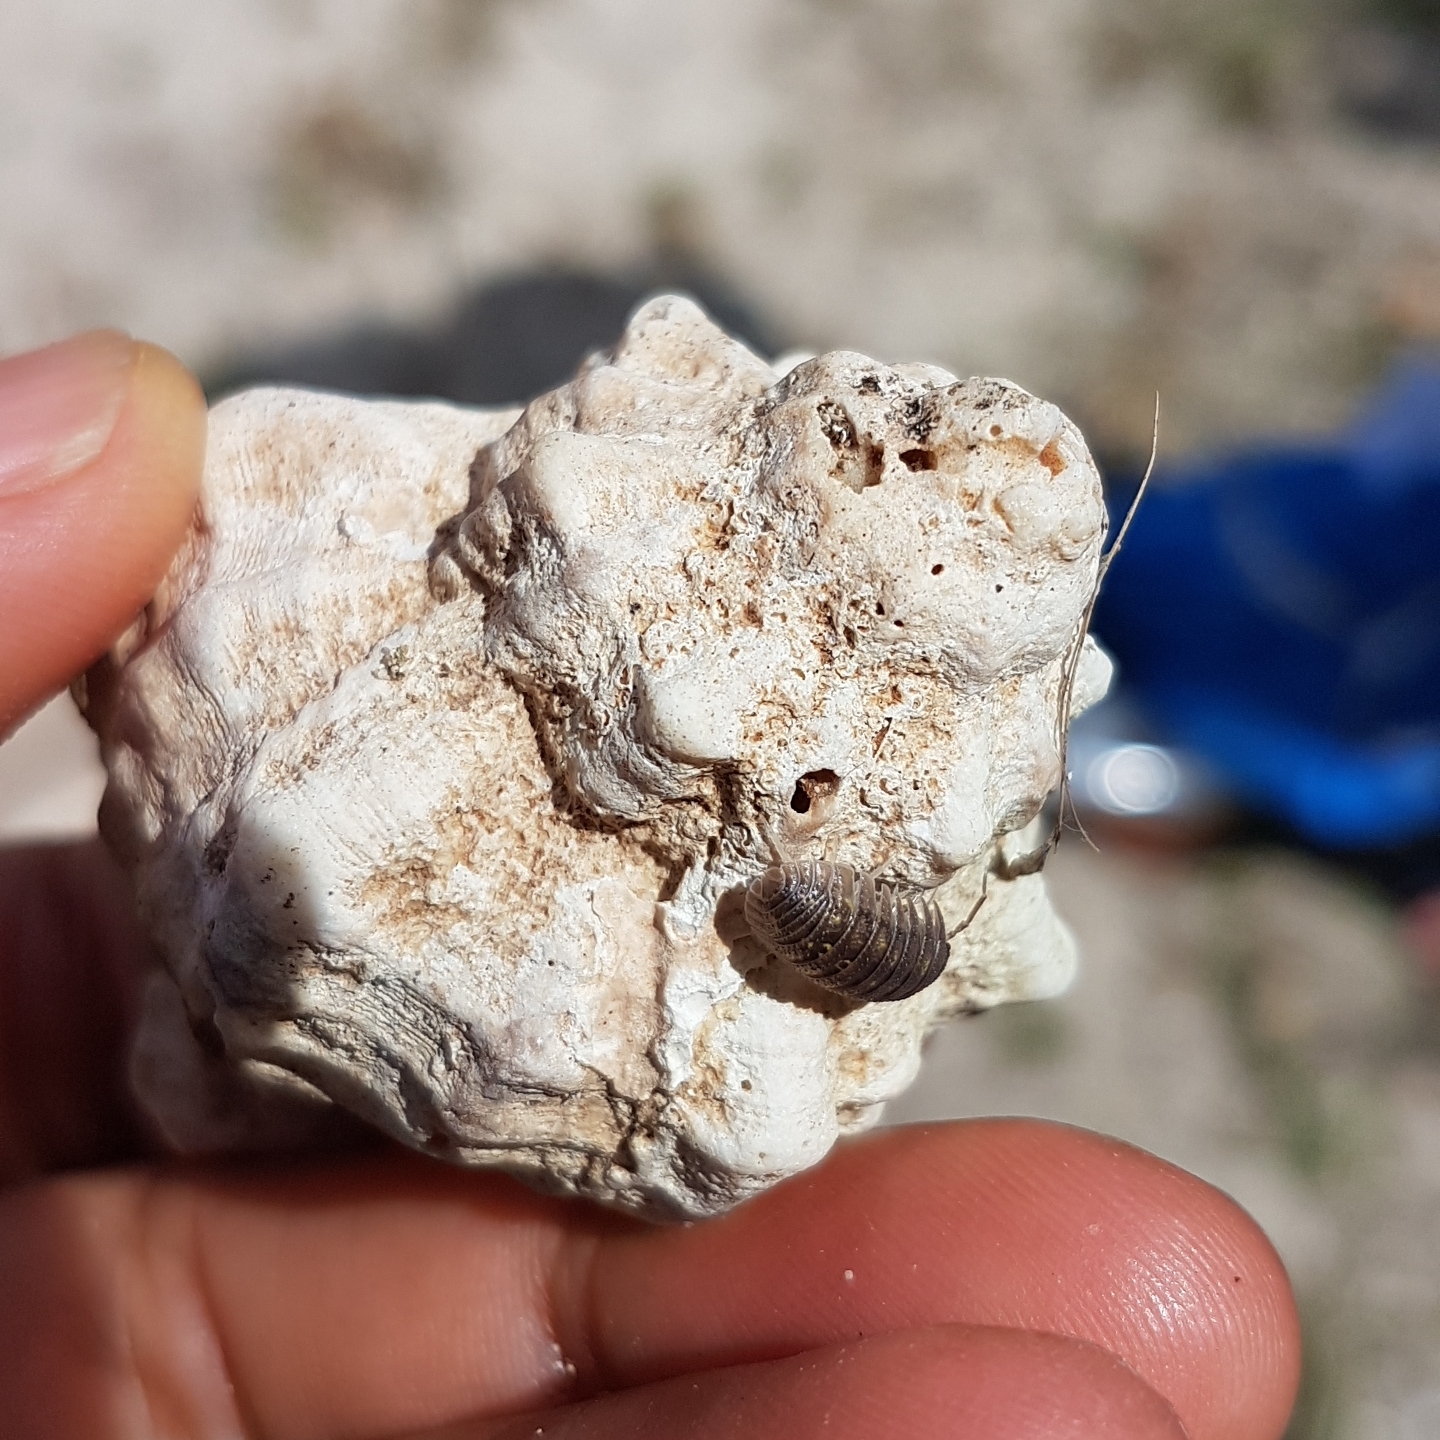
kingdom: Animalia
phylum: Mollusca
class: Gastropoda
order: Neogastropoda
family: Muricidae
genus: Hexaplex
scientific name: Hexaplex trunculus
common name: Banded dye-murex
